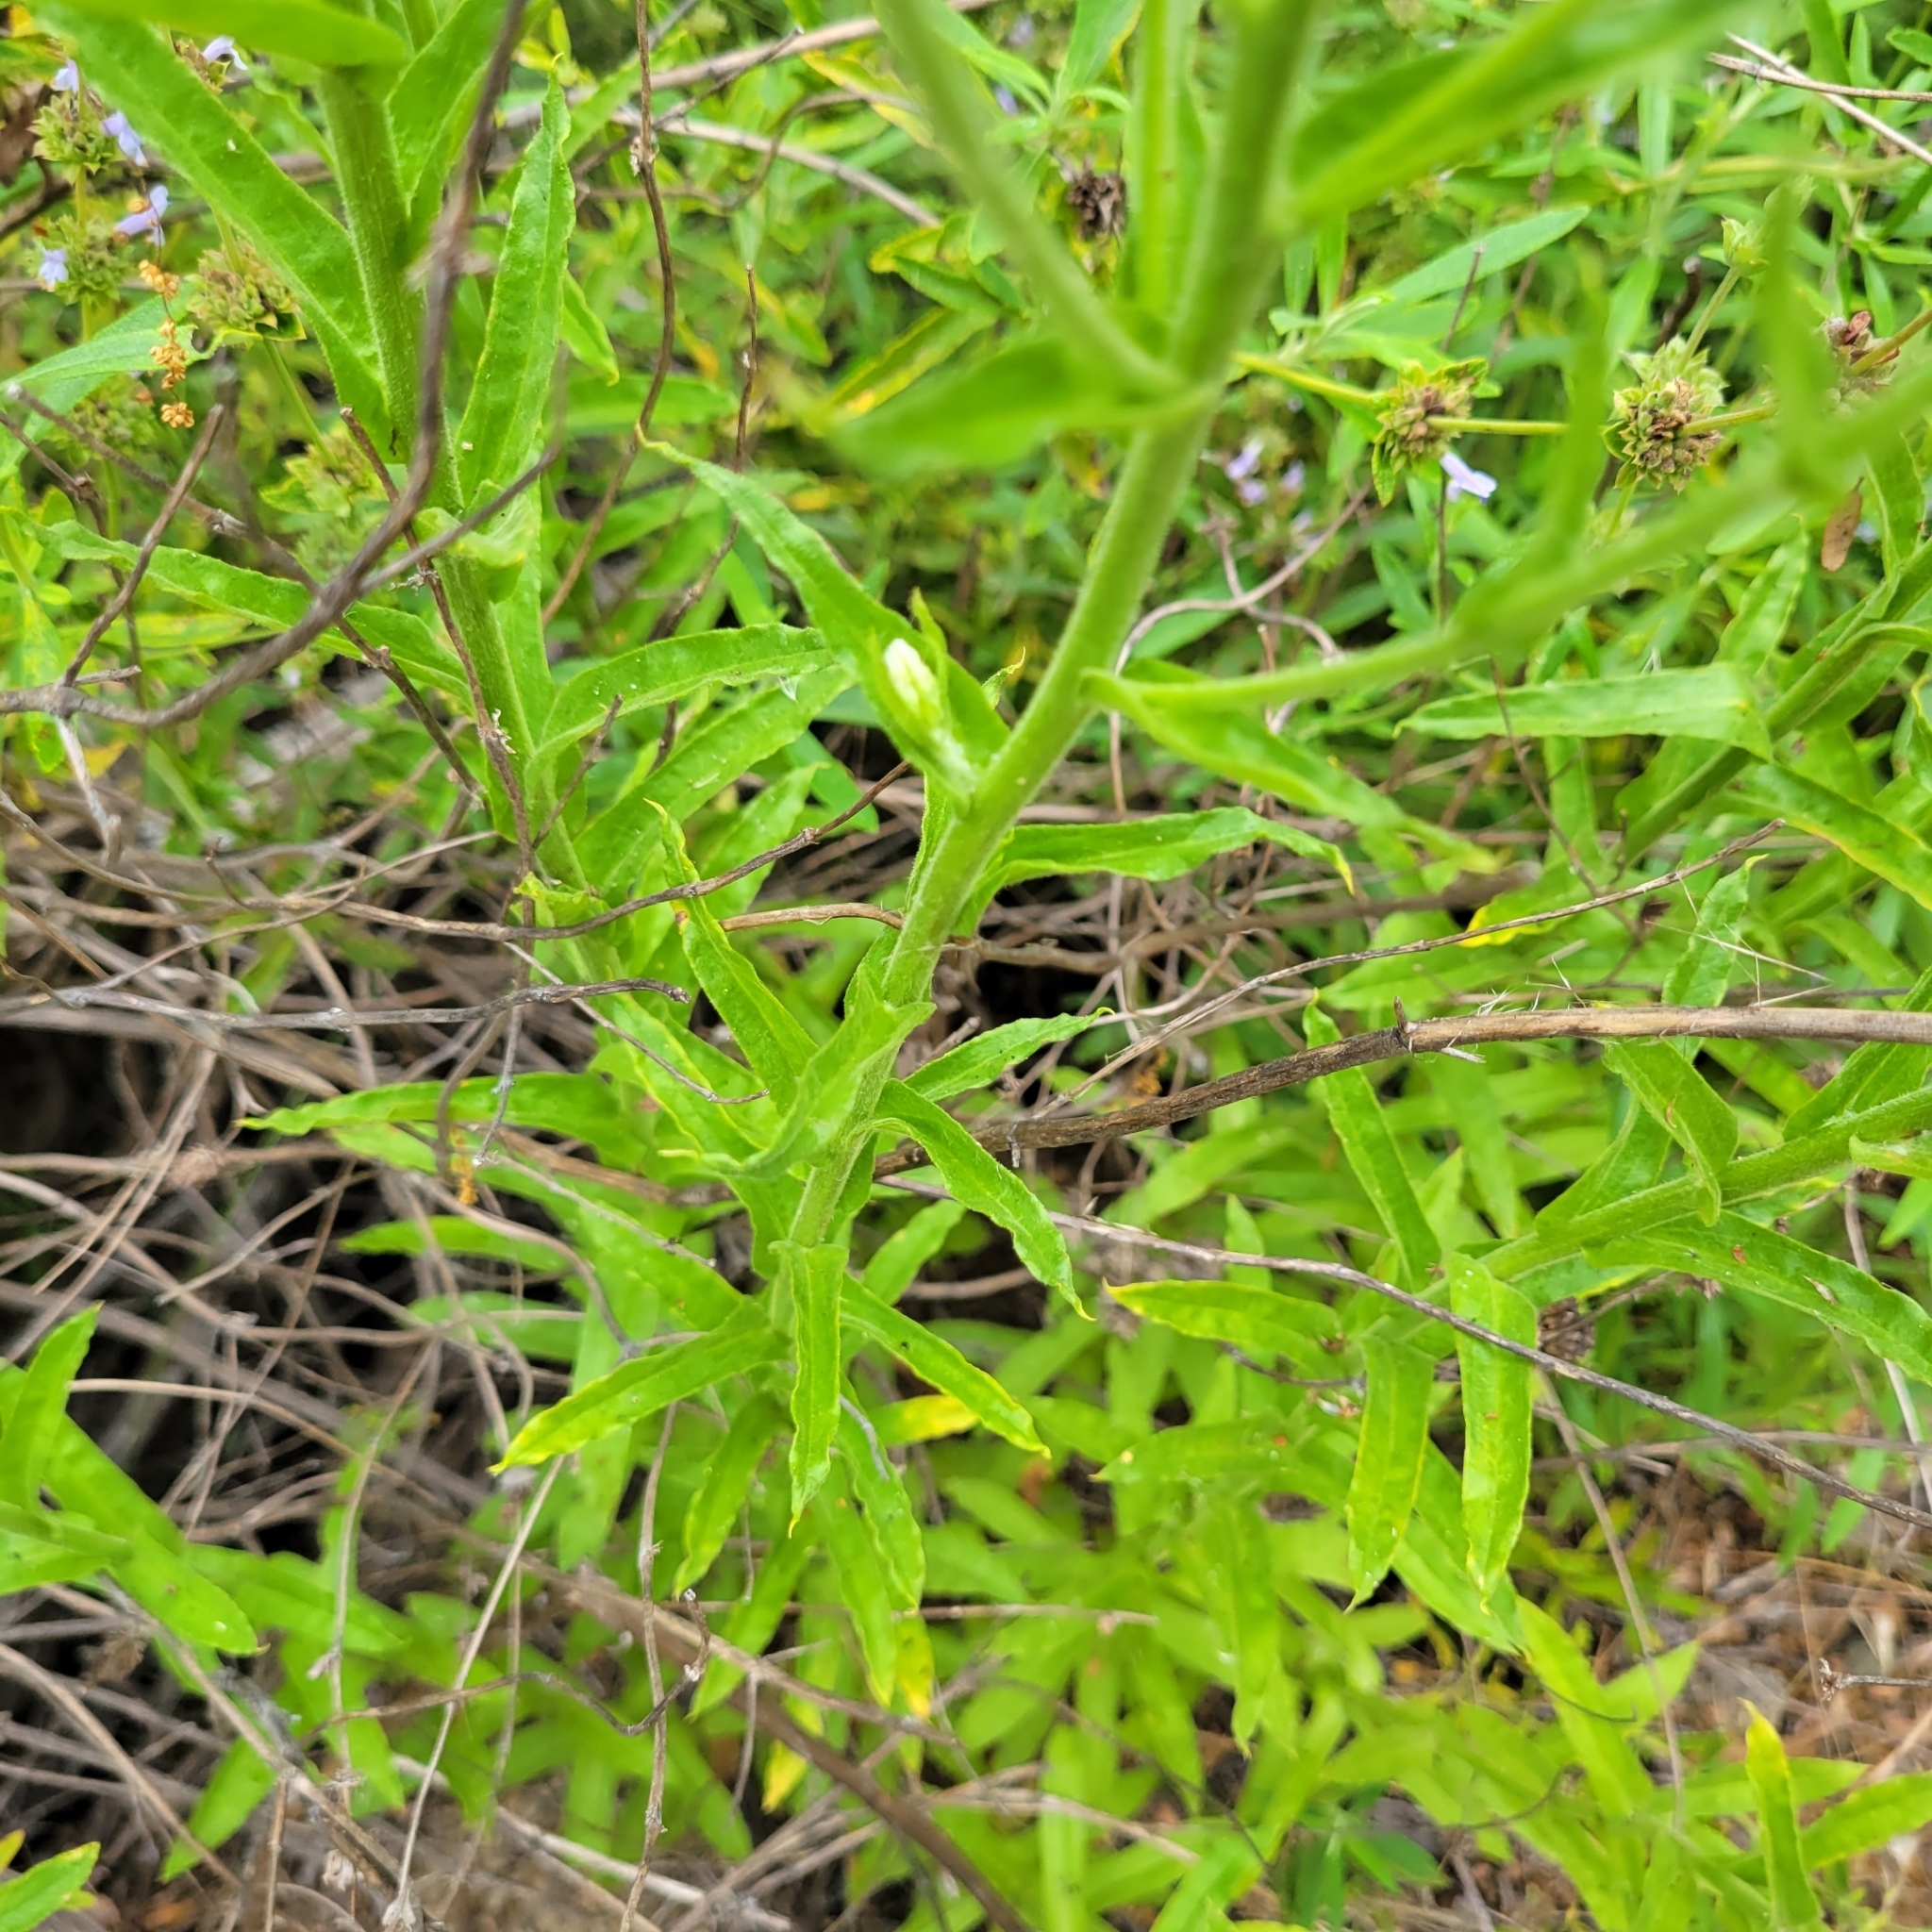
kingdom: Plantae
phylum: Tracheophyta
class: Magnoliopsida
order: Asterales
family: Asteraceae
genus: Pseudognaphalium
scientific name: Pseudognaphalium californicum
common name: California rabbit-tobacco
